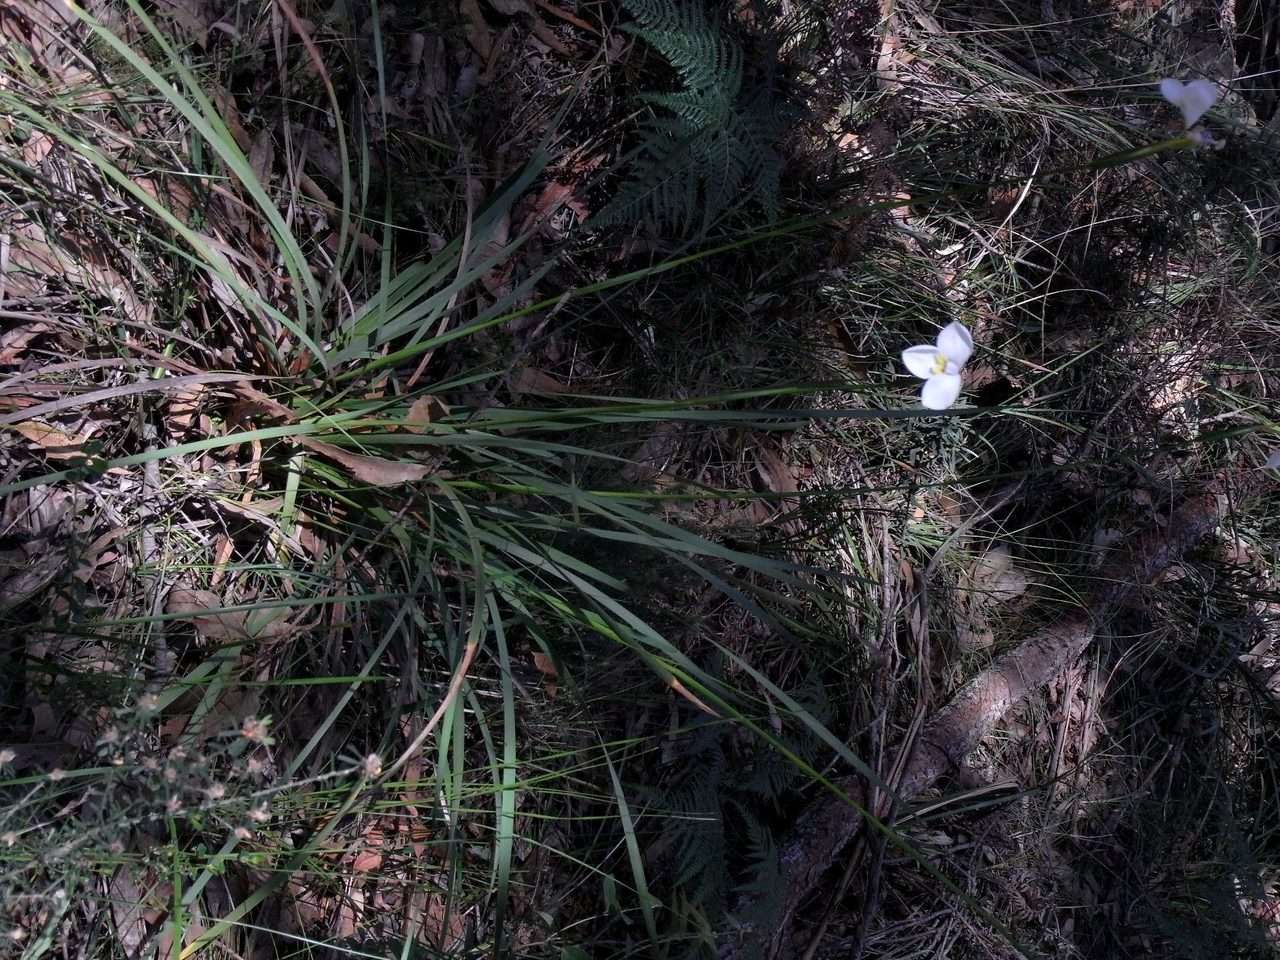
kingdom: Plantae
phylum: Tracheophyta
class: Liliopsida
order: Asparagales
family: Iridaceae
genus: Diplarrena
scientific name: Diplarrena moraea
